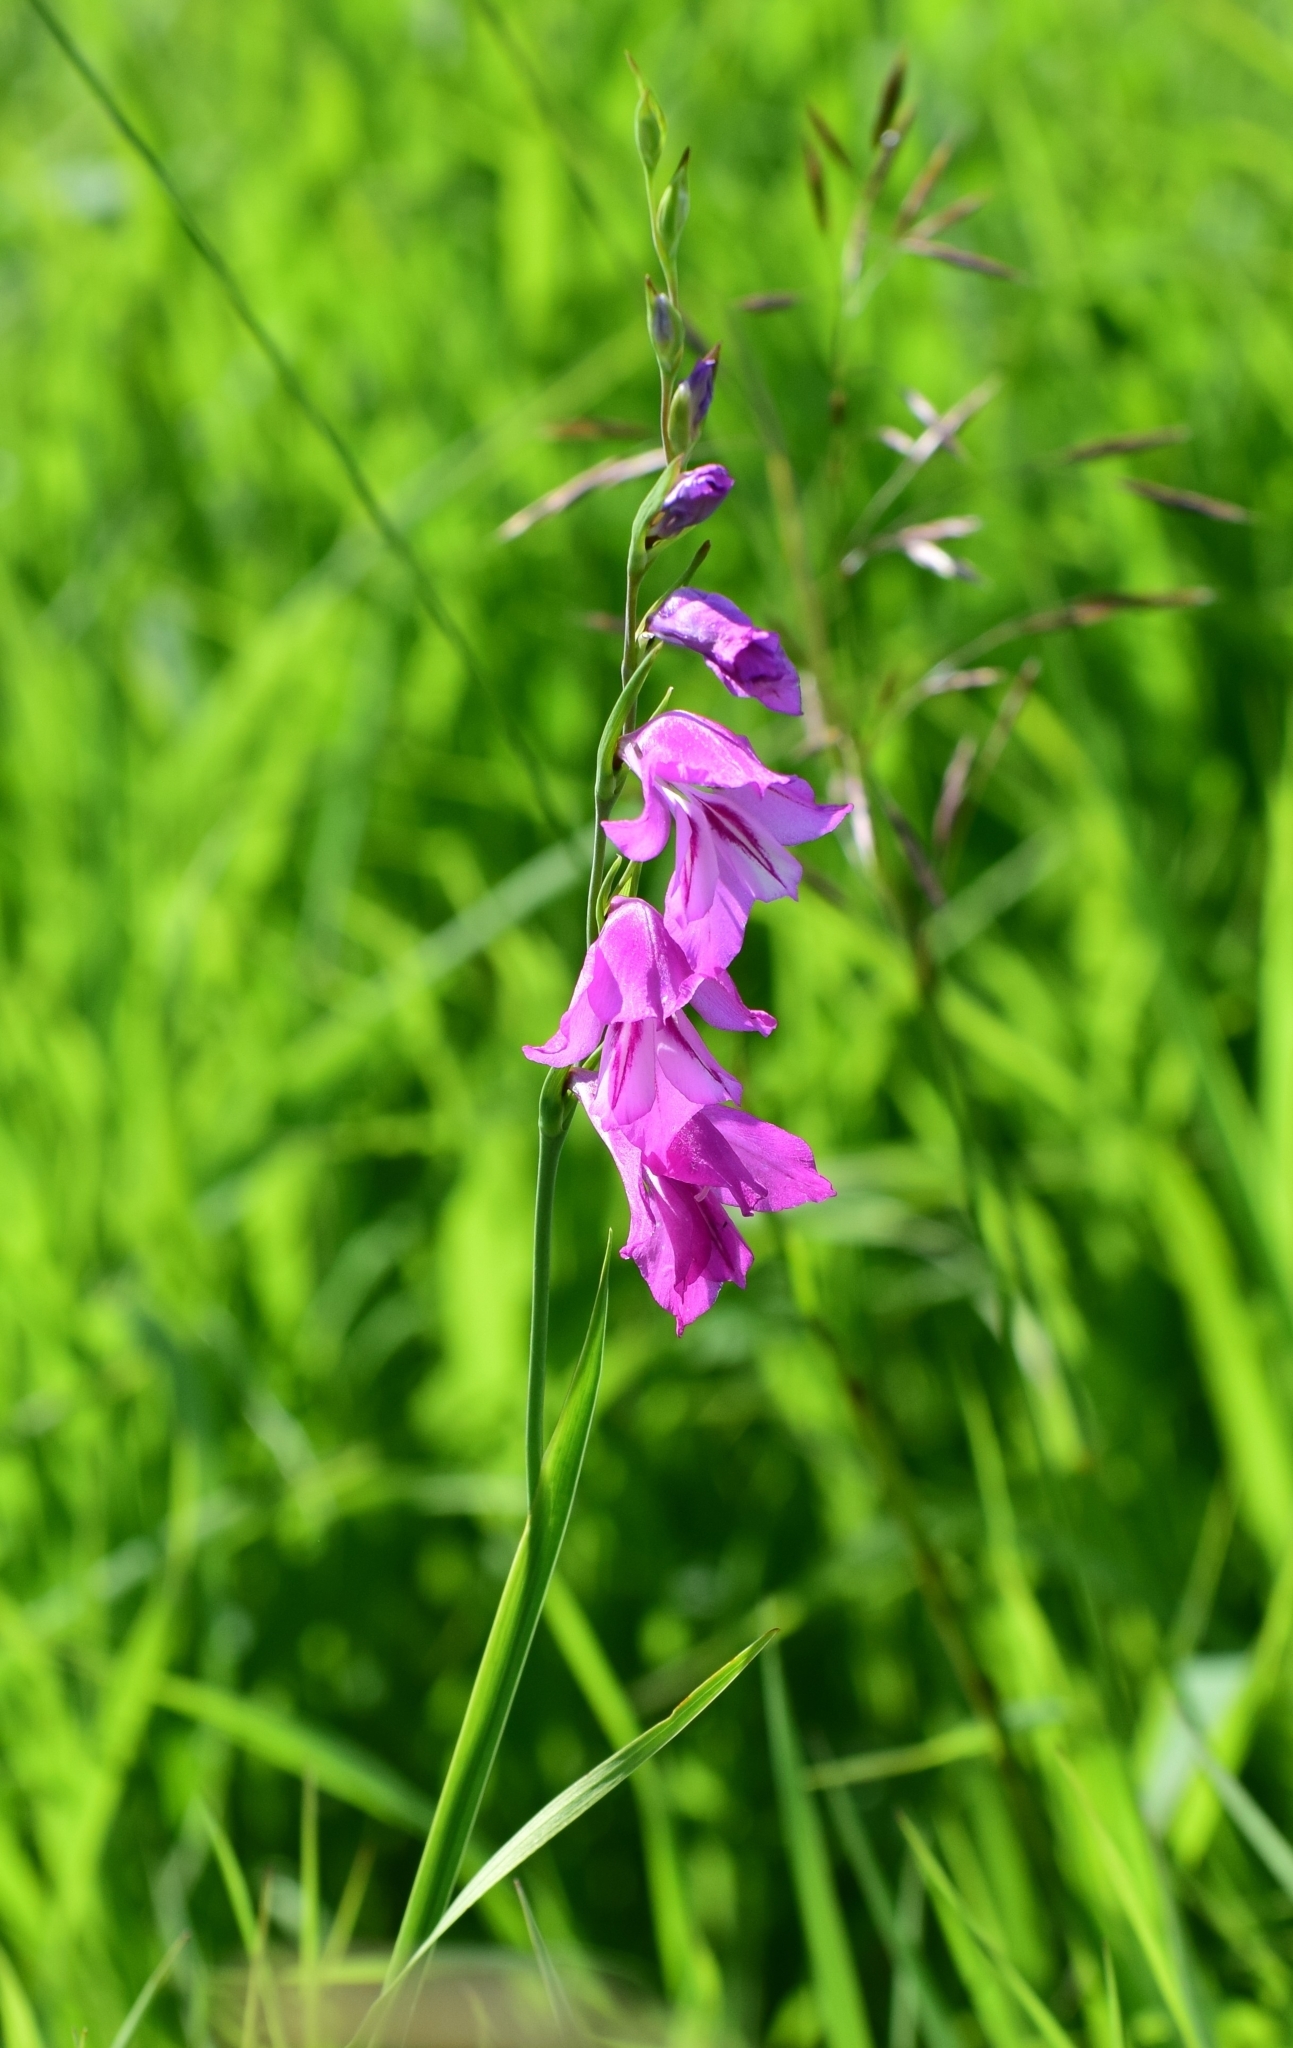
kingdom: Plantae
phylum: Tracheophyta
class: Liliopsida
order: Asparagales
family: Iridaceae
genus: Gladiolus
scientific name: Gladiolus imbricatus
